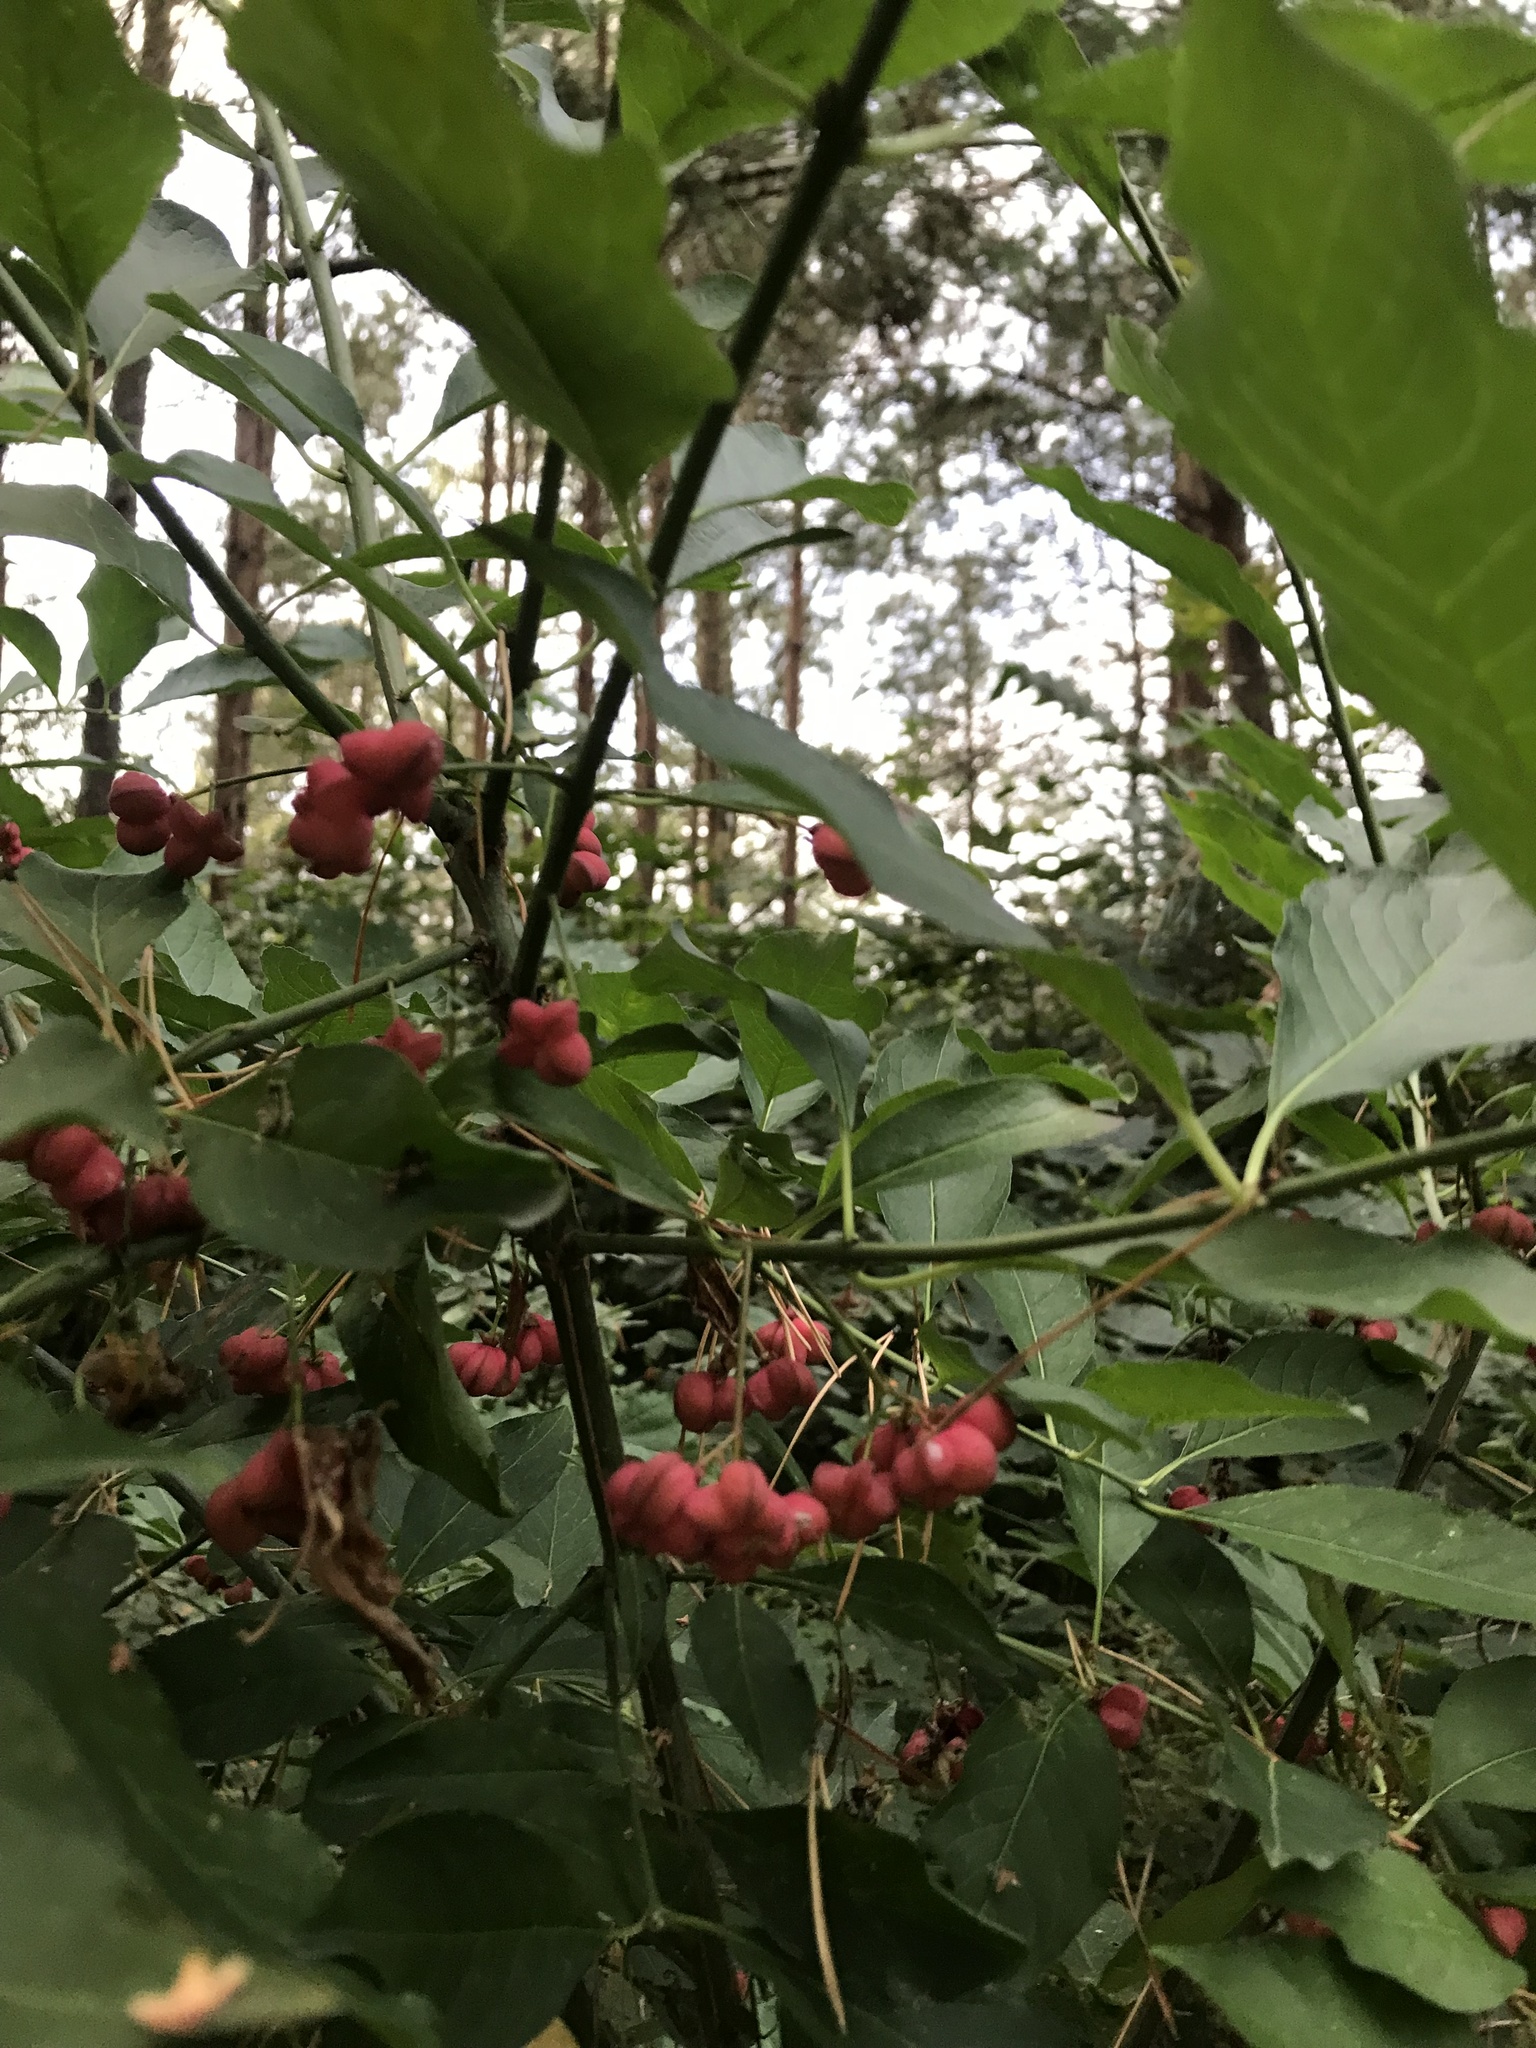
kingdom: Plantae
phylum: Tracheophyta
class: Magnoliopsida
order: Celastrales
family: Celastraceae
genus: Euonymus
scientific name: Euonymus europaeus
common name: Spindle
